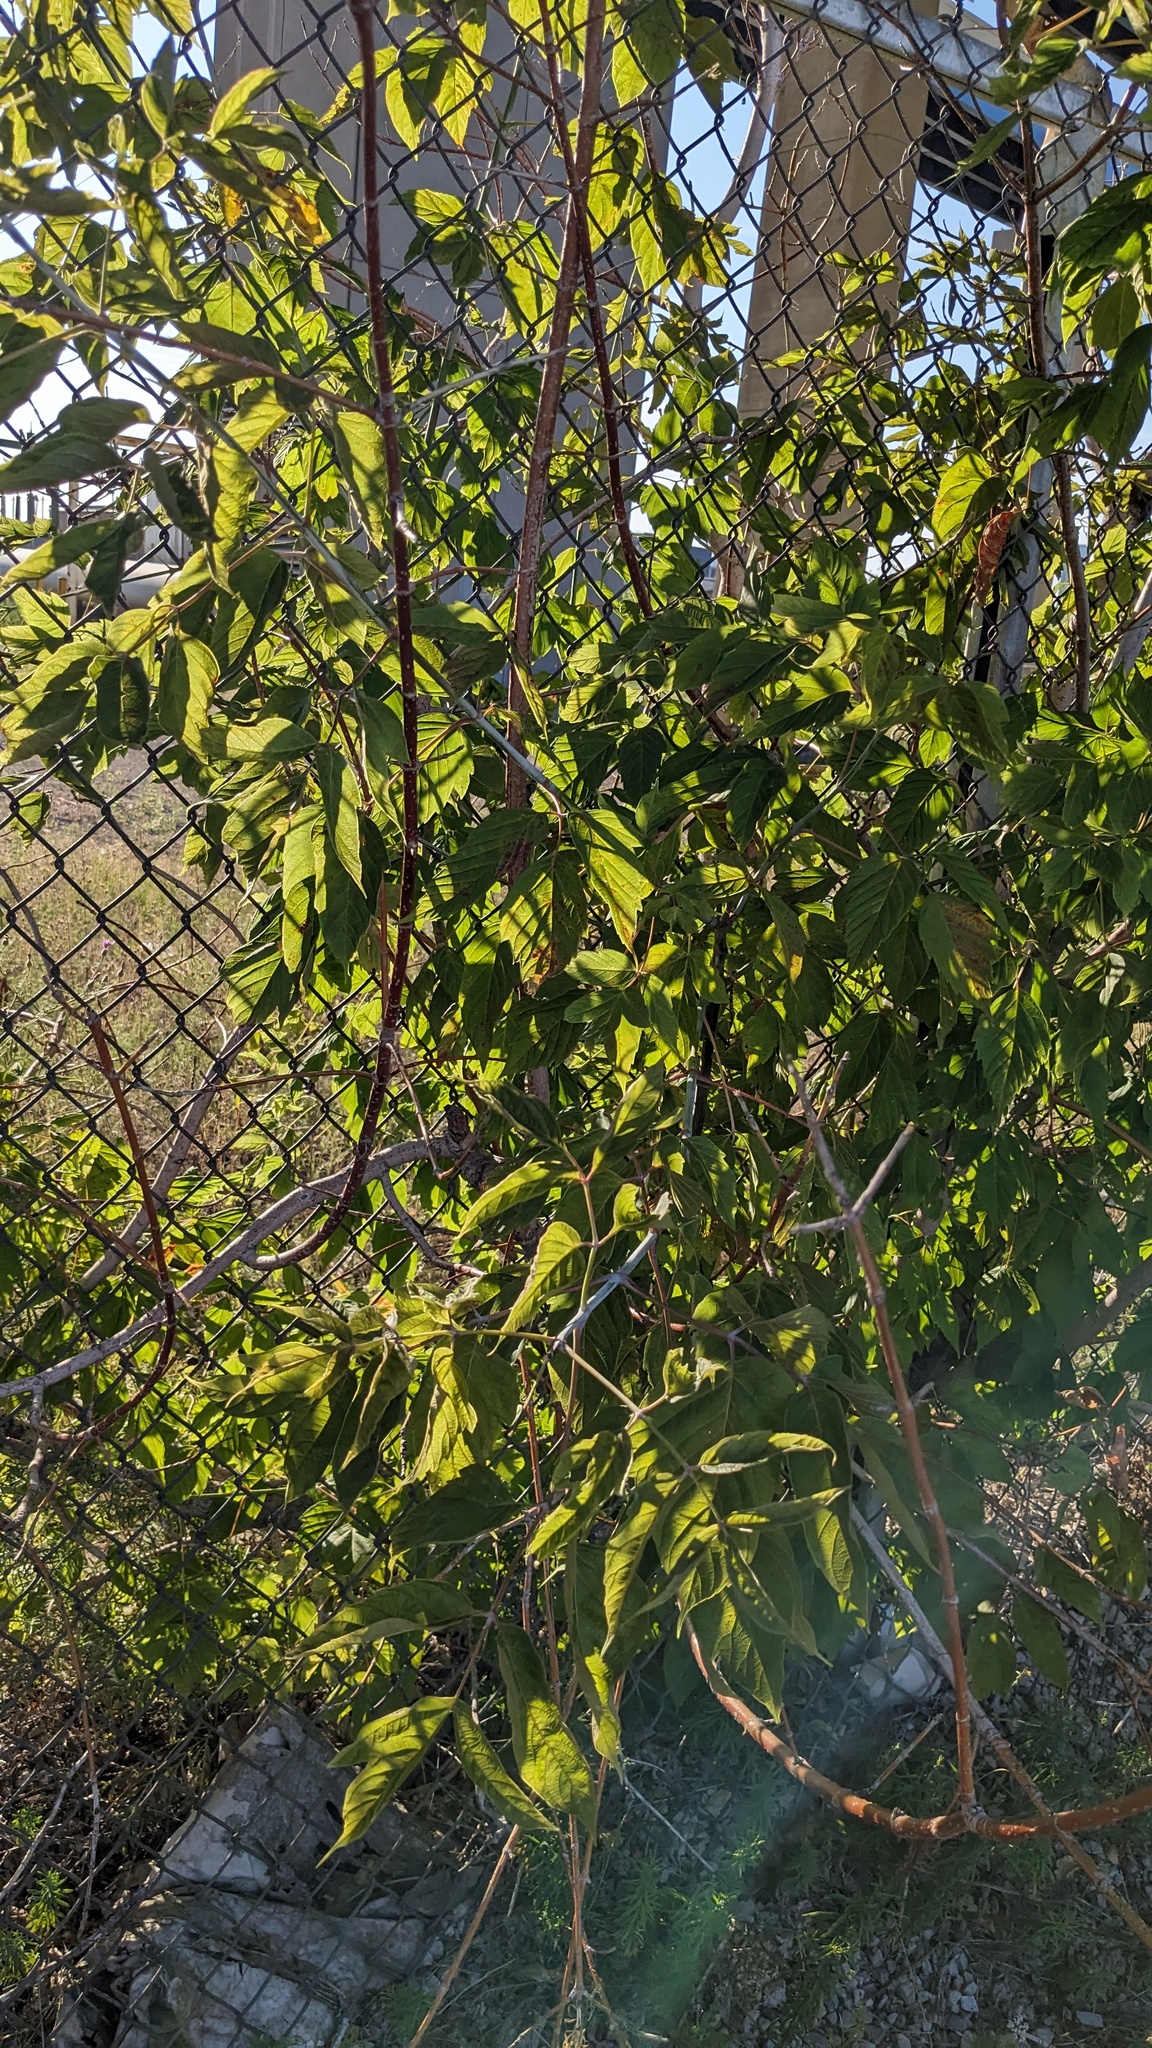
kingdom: Plantae
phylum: Tracheophyta
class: Magnoliopsida
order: Sapindales
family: Sapindaceae
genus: Acer
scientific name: Acer negundo
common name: Ashleaf maple
